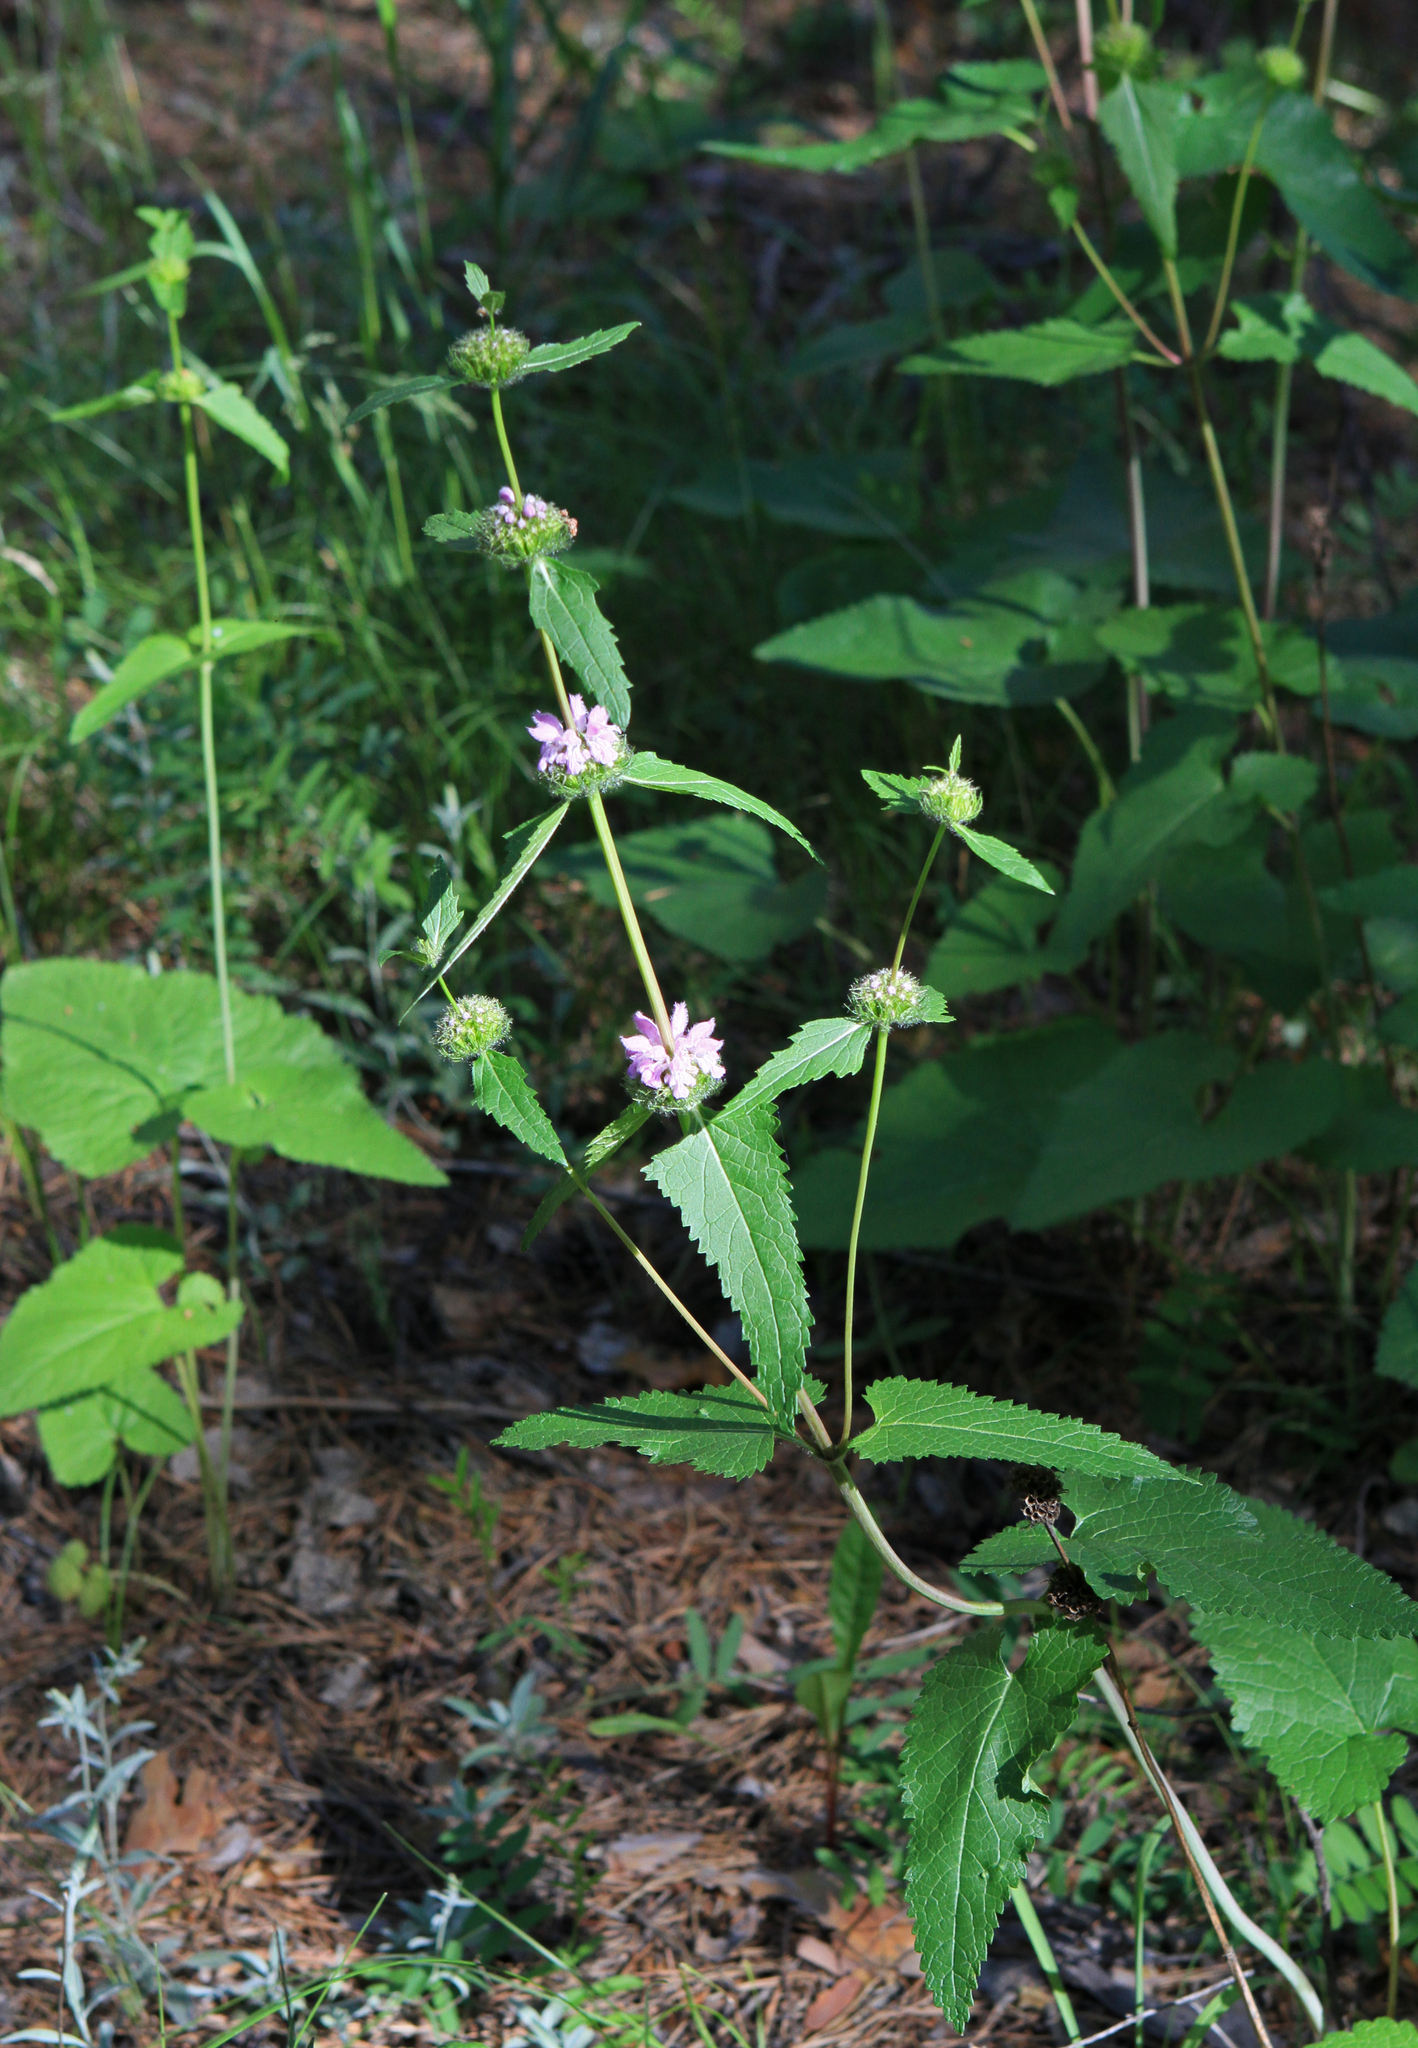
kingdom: Plantae
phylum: Tracheophyta
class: Magnoliopsida
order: Lamiales
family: Lamiaceae
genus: Phlomoides
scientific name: Phlomoides tuberosa
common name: Tuberous jerusalem sage
